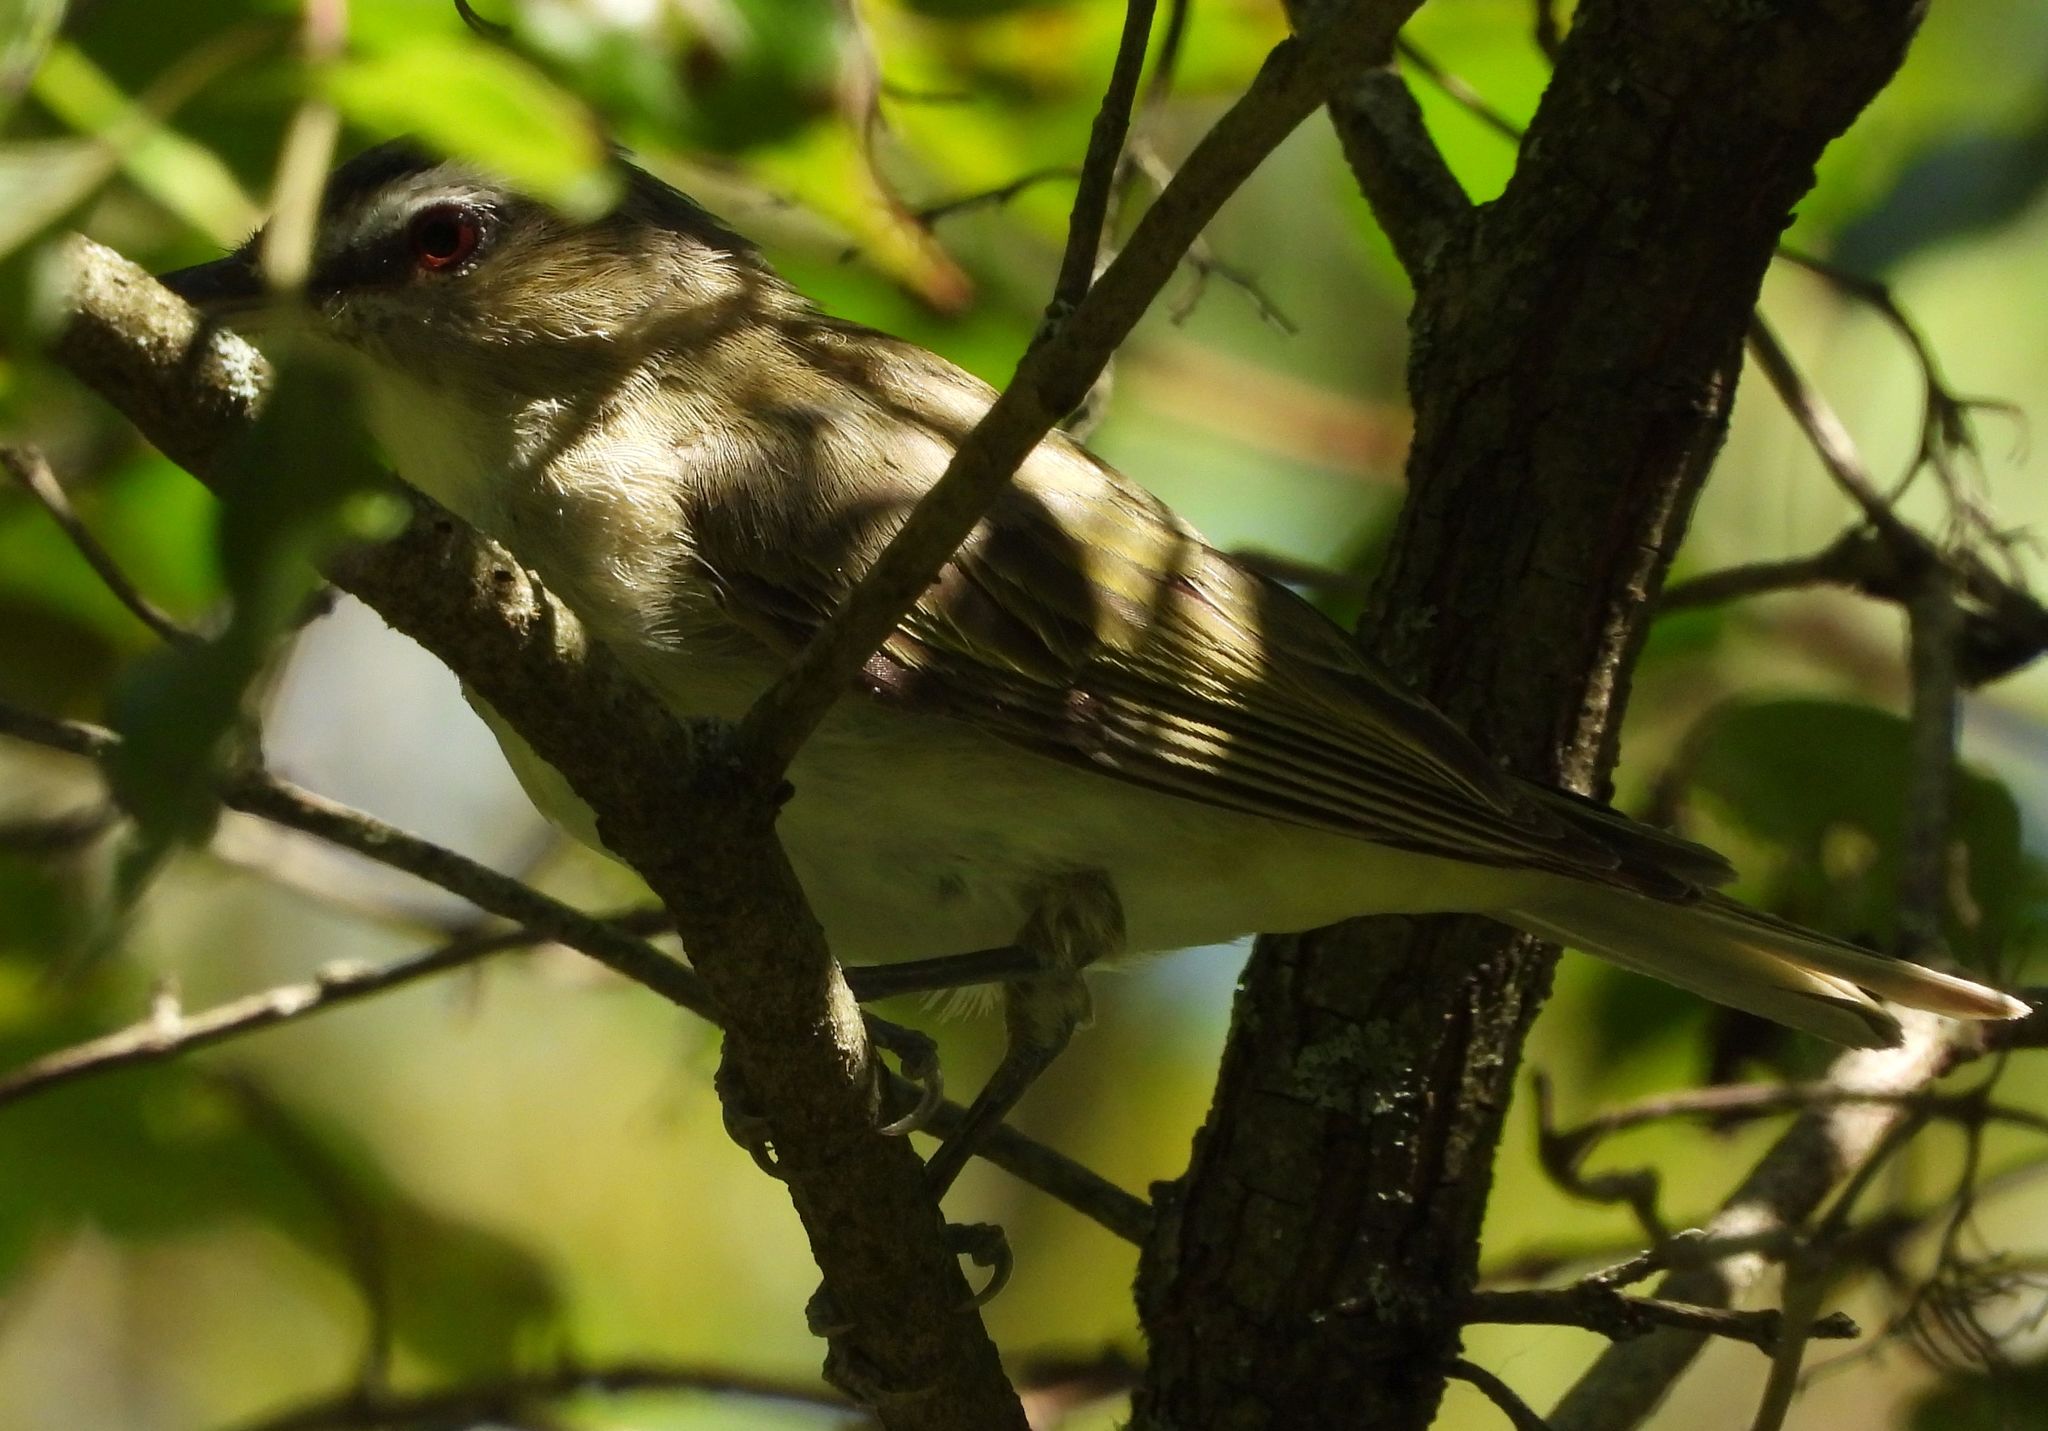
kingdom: Animalia
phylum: Chordata
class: Aves
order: Passeriformes
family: Vireonidae
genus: Vireo
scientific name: Vireo olivaceus
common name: Red-eyed vireo
